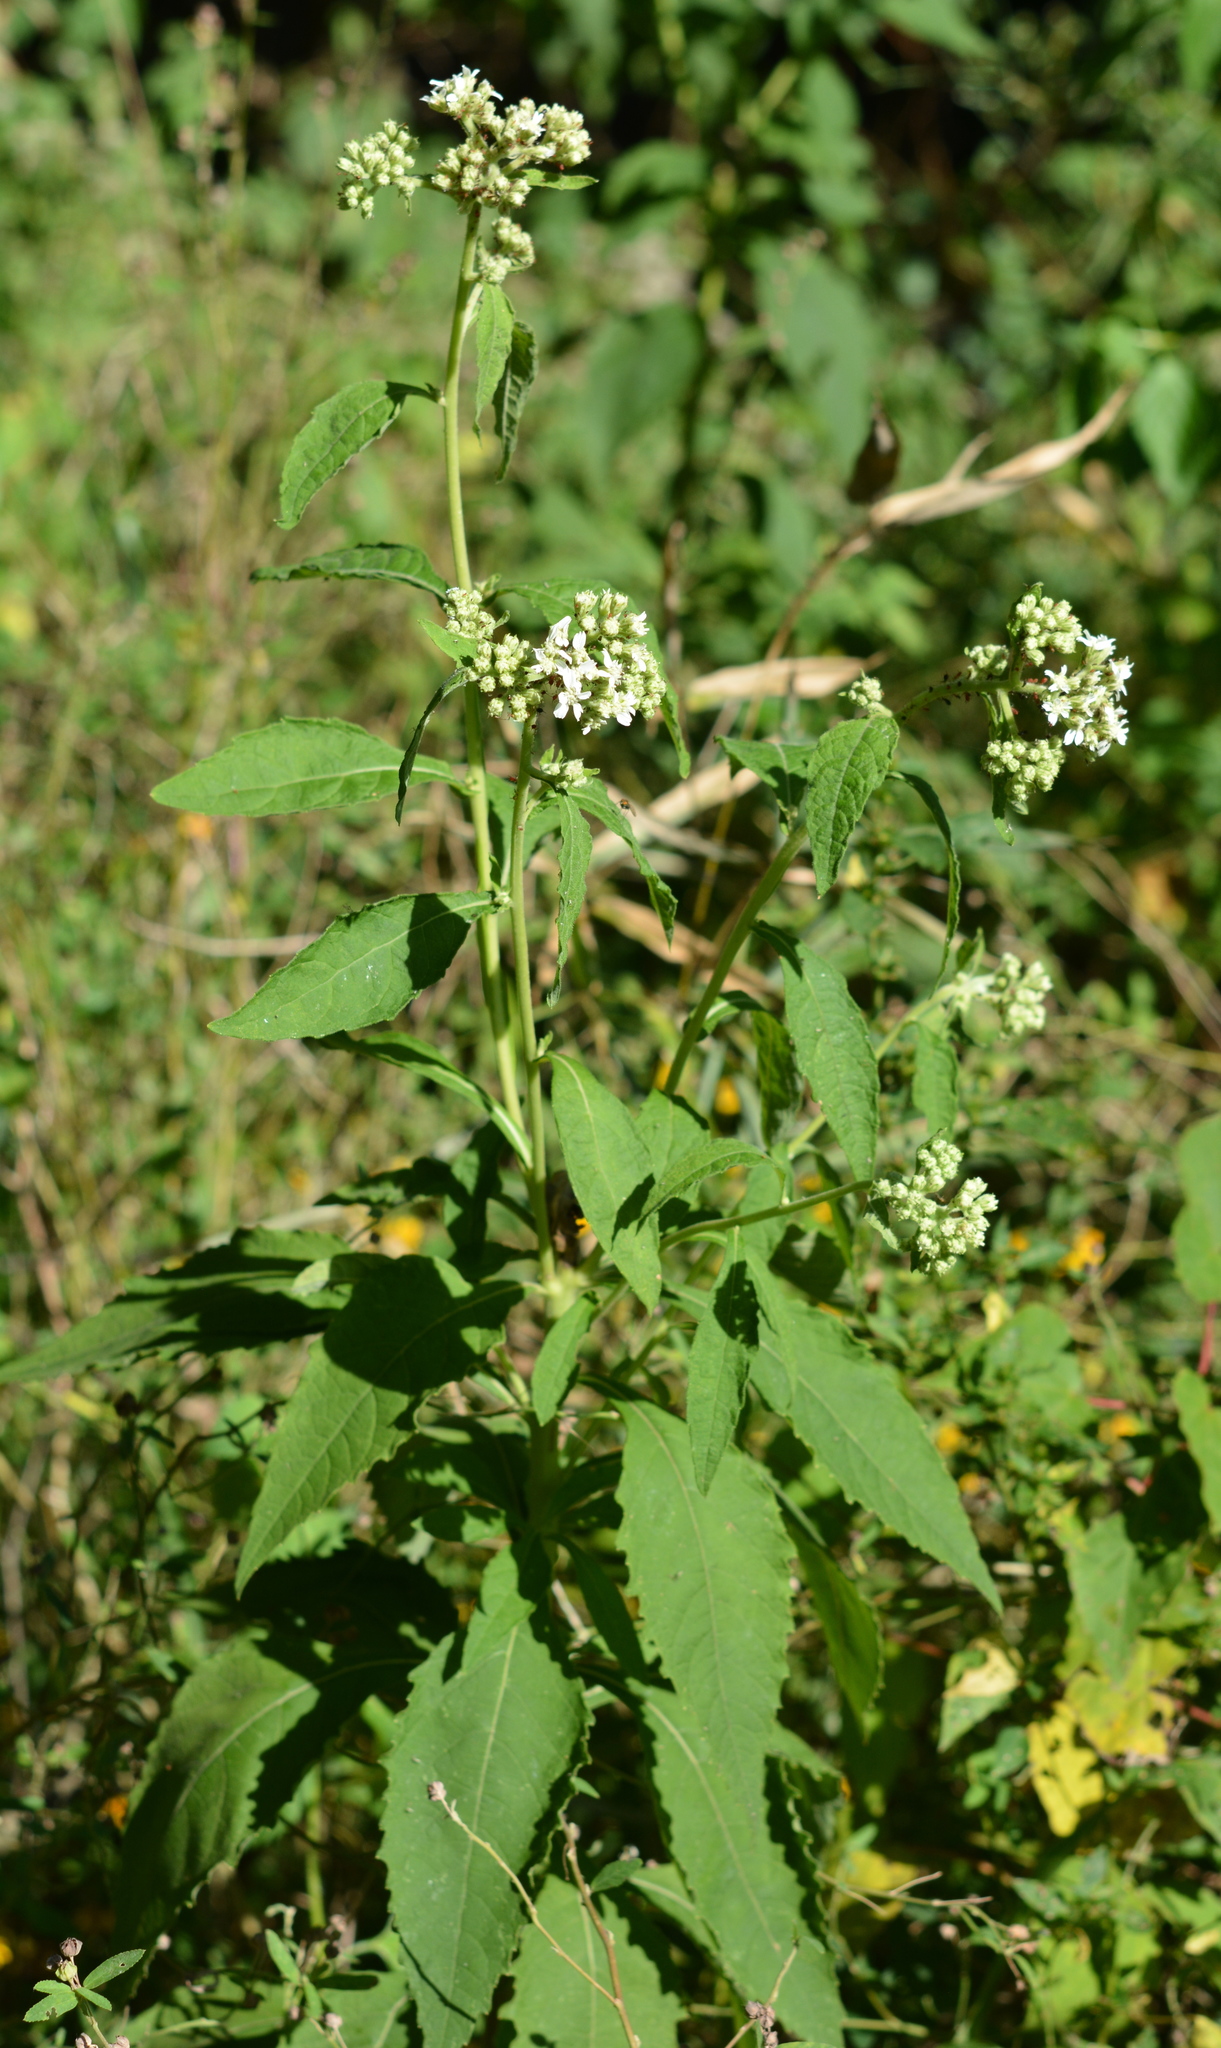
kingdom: Plantae
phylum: Tracheophyta
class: Magnoliopsida
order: Asterales
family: Asteraceae
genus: Verbesina
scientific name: Verbesina virginica
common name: Frostweed
